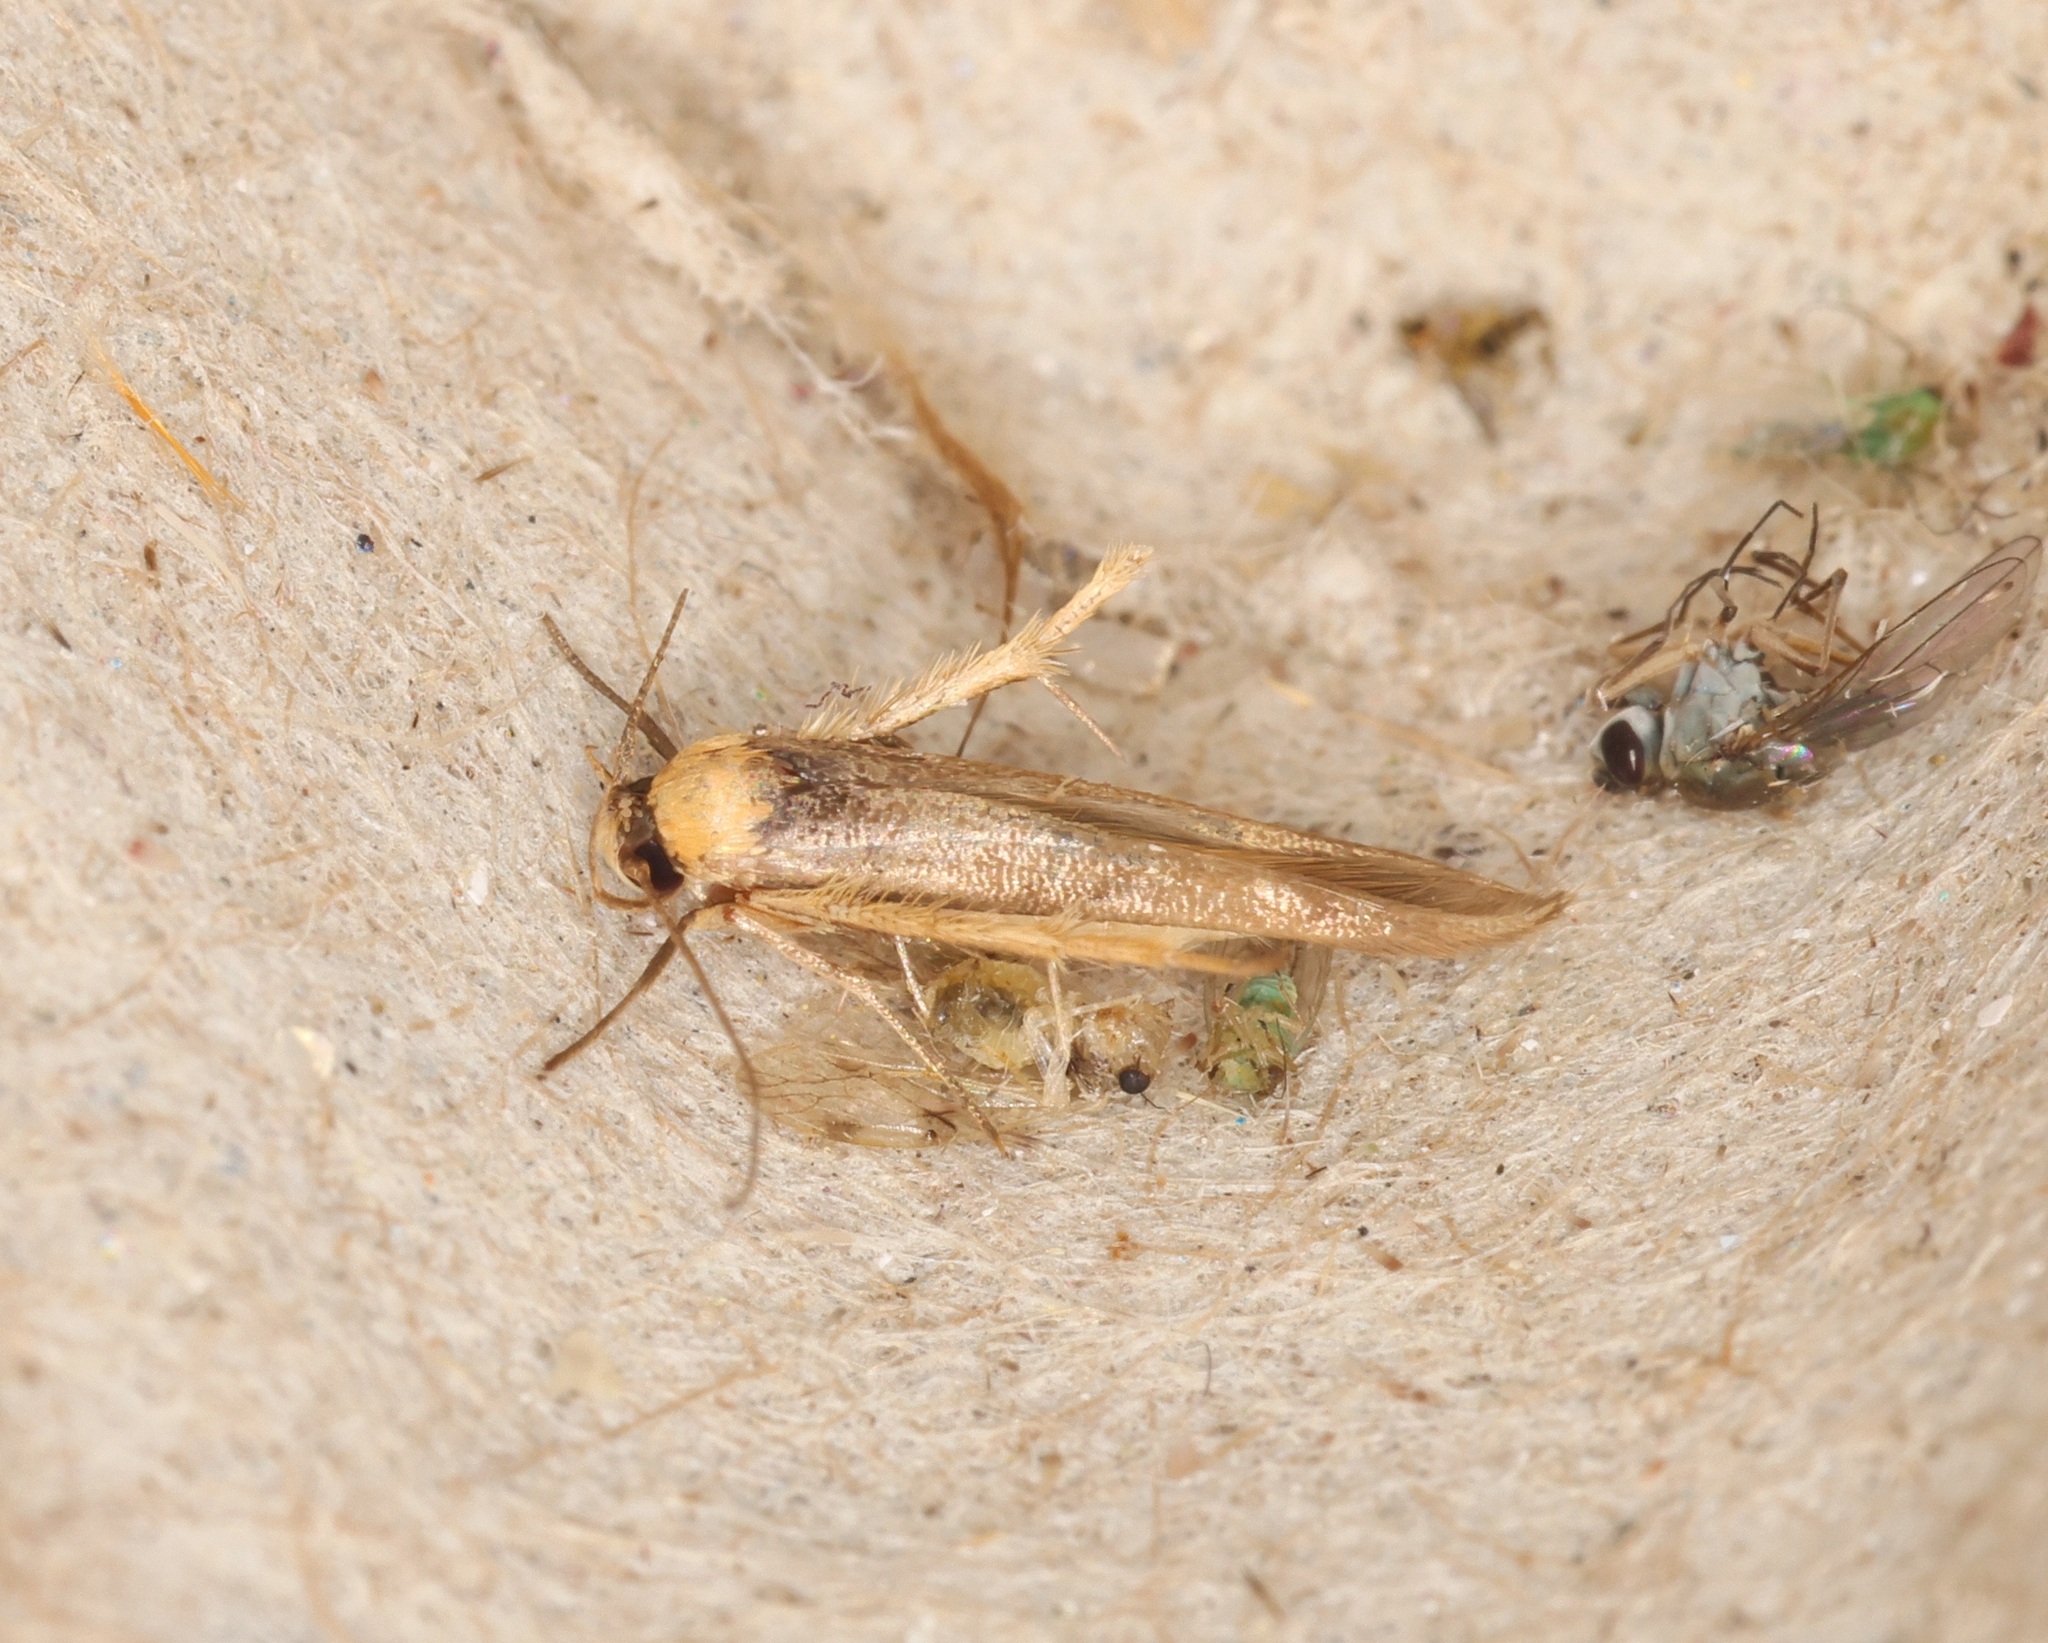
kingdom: Animalia
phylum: Arthropoda
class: Insecta
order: Lepidoptera
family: Stathmopodidae
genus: Stathmopoda
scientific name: Stathmopoda
